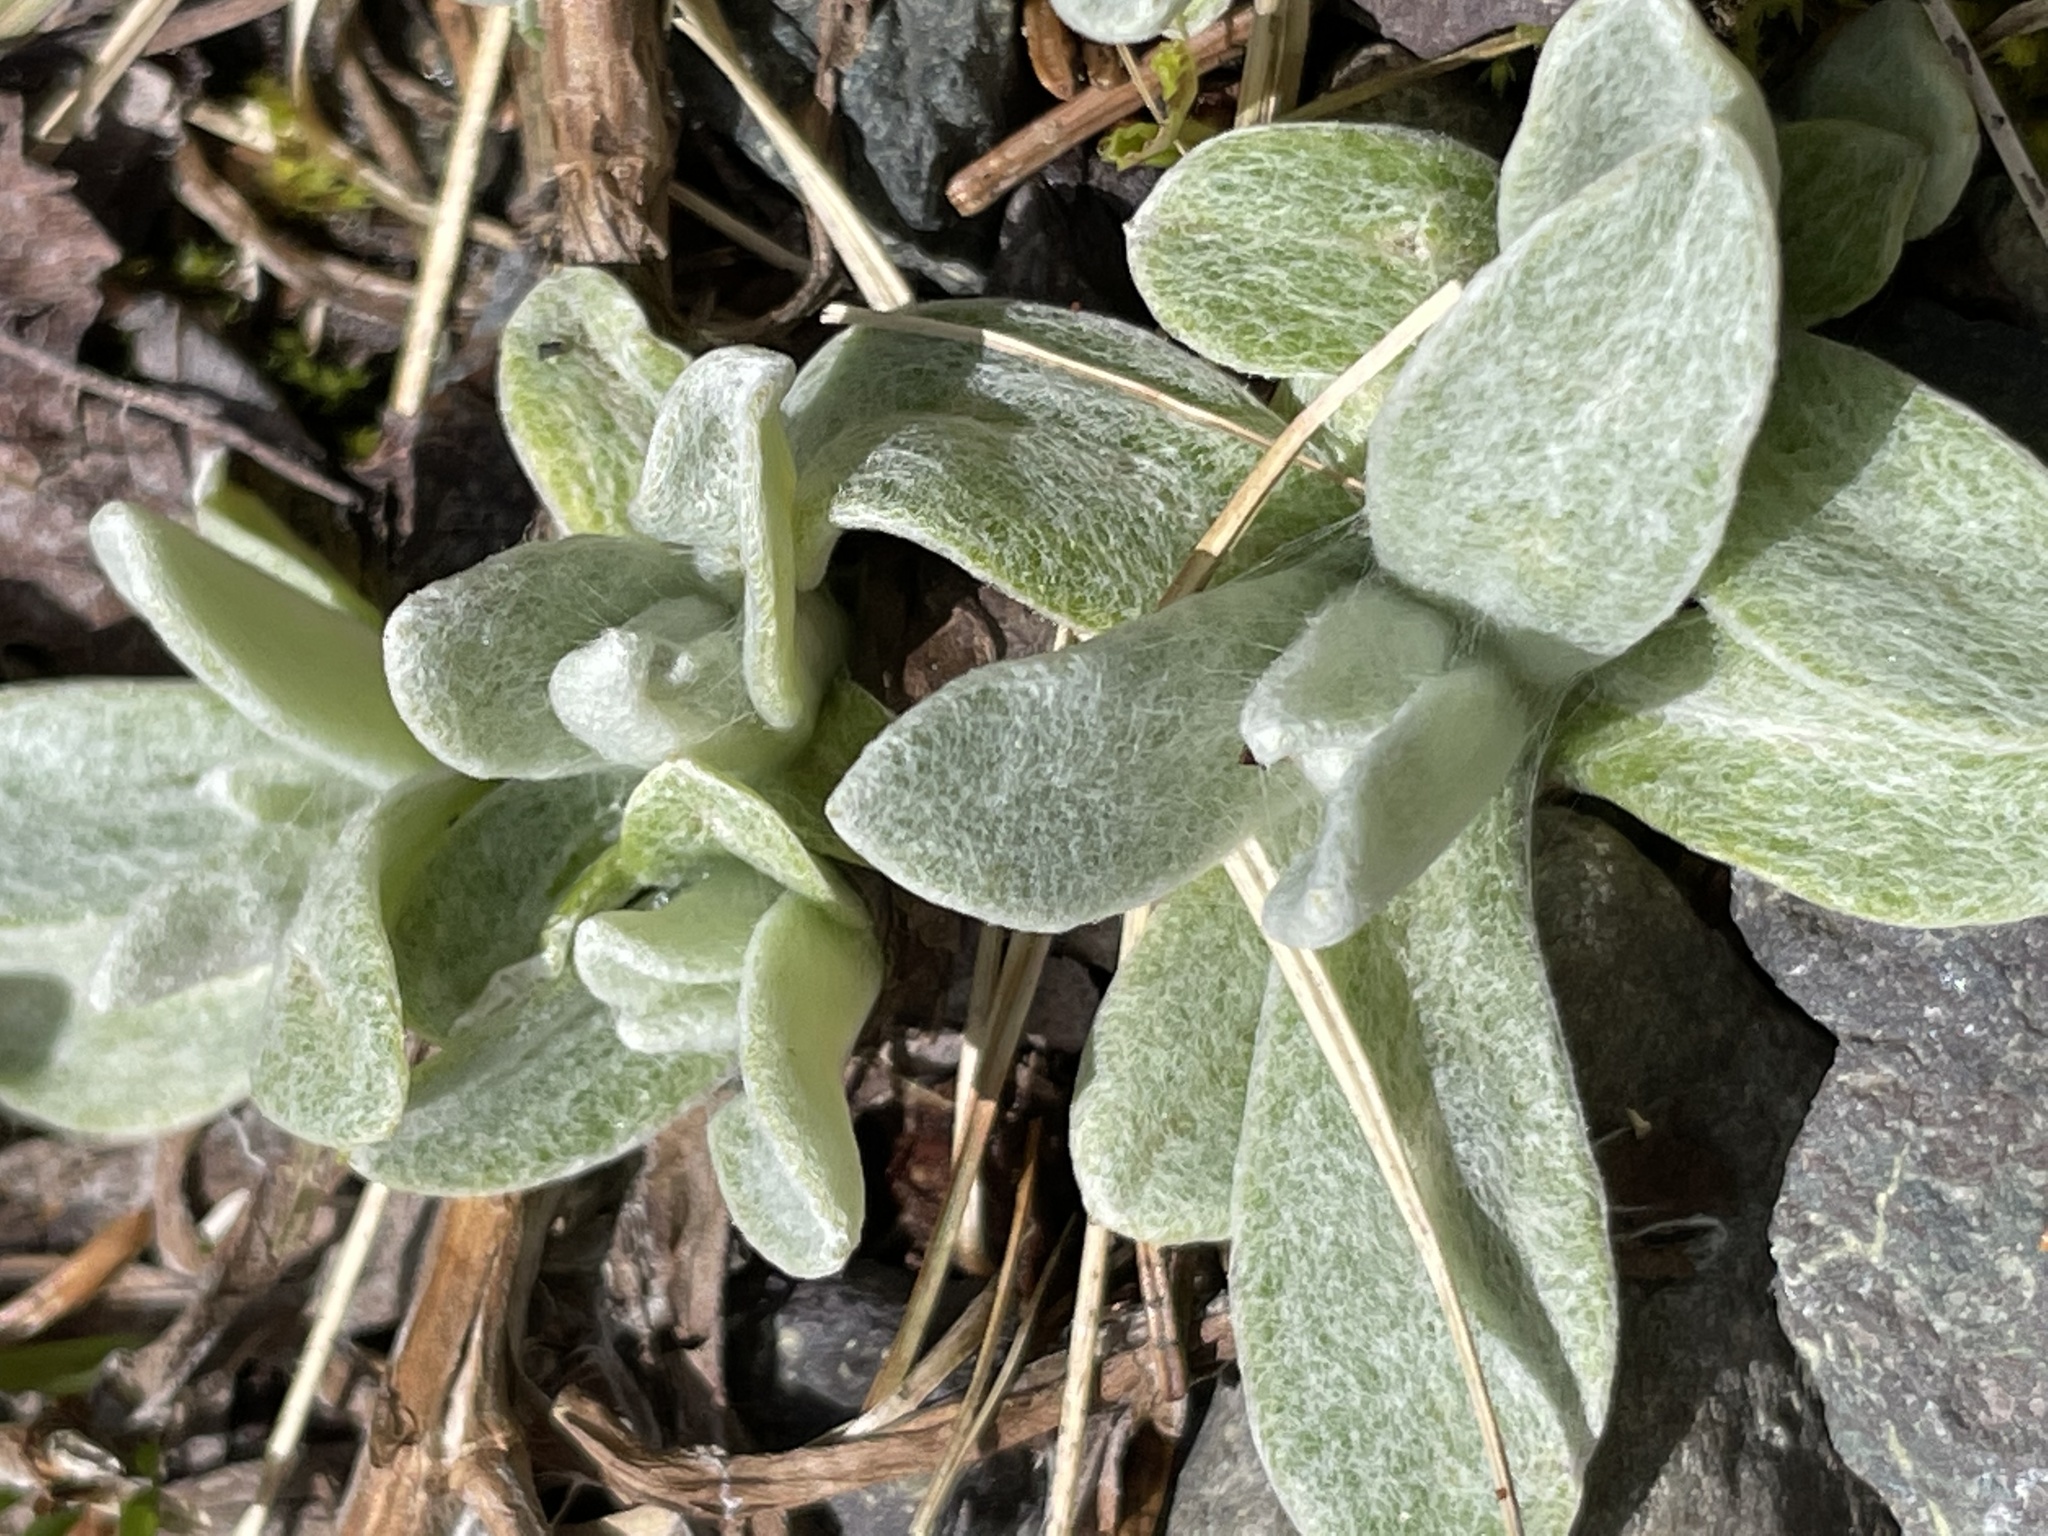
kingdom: Plantae
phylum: Tracheophyta
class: Magnoliopsida
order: Lamiales
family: Scrophulariaceae
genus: Verbascum
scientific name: Verbascum thapsus
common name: Common mullein
